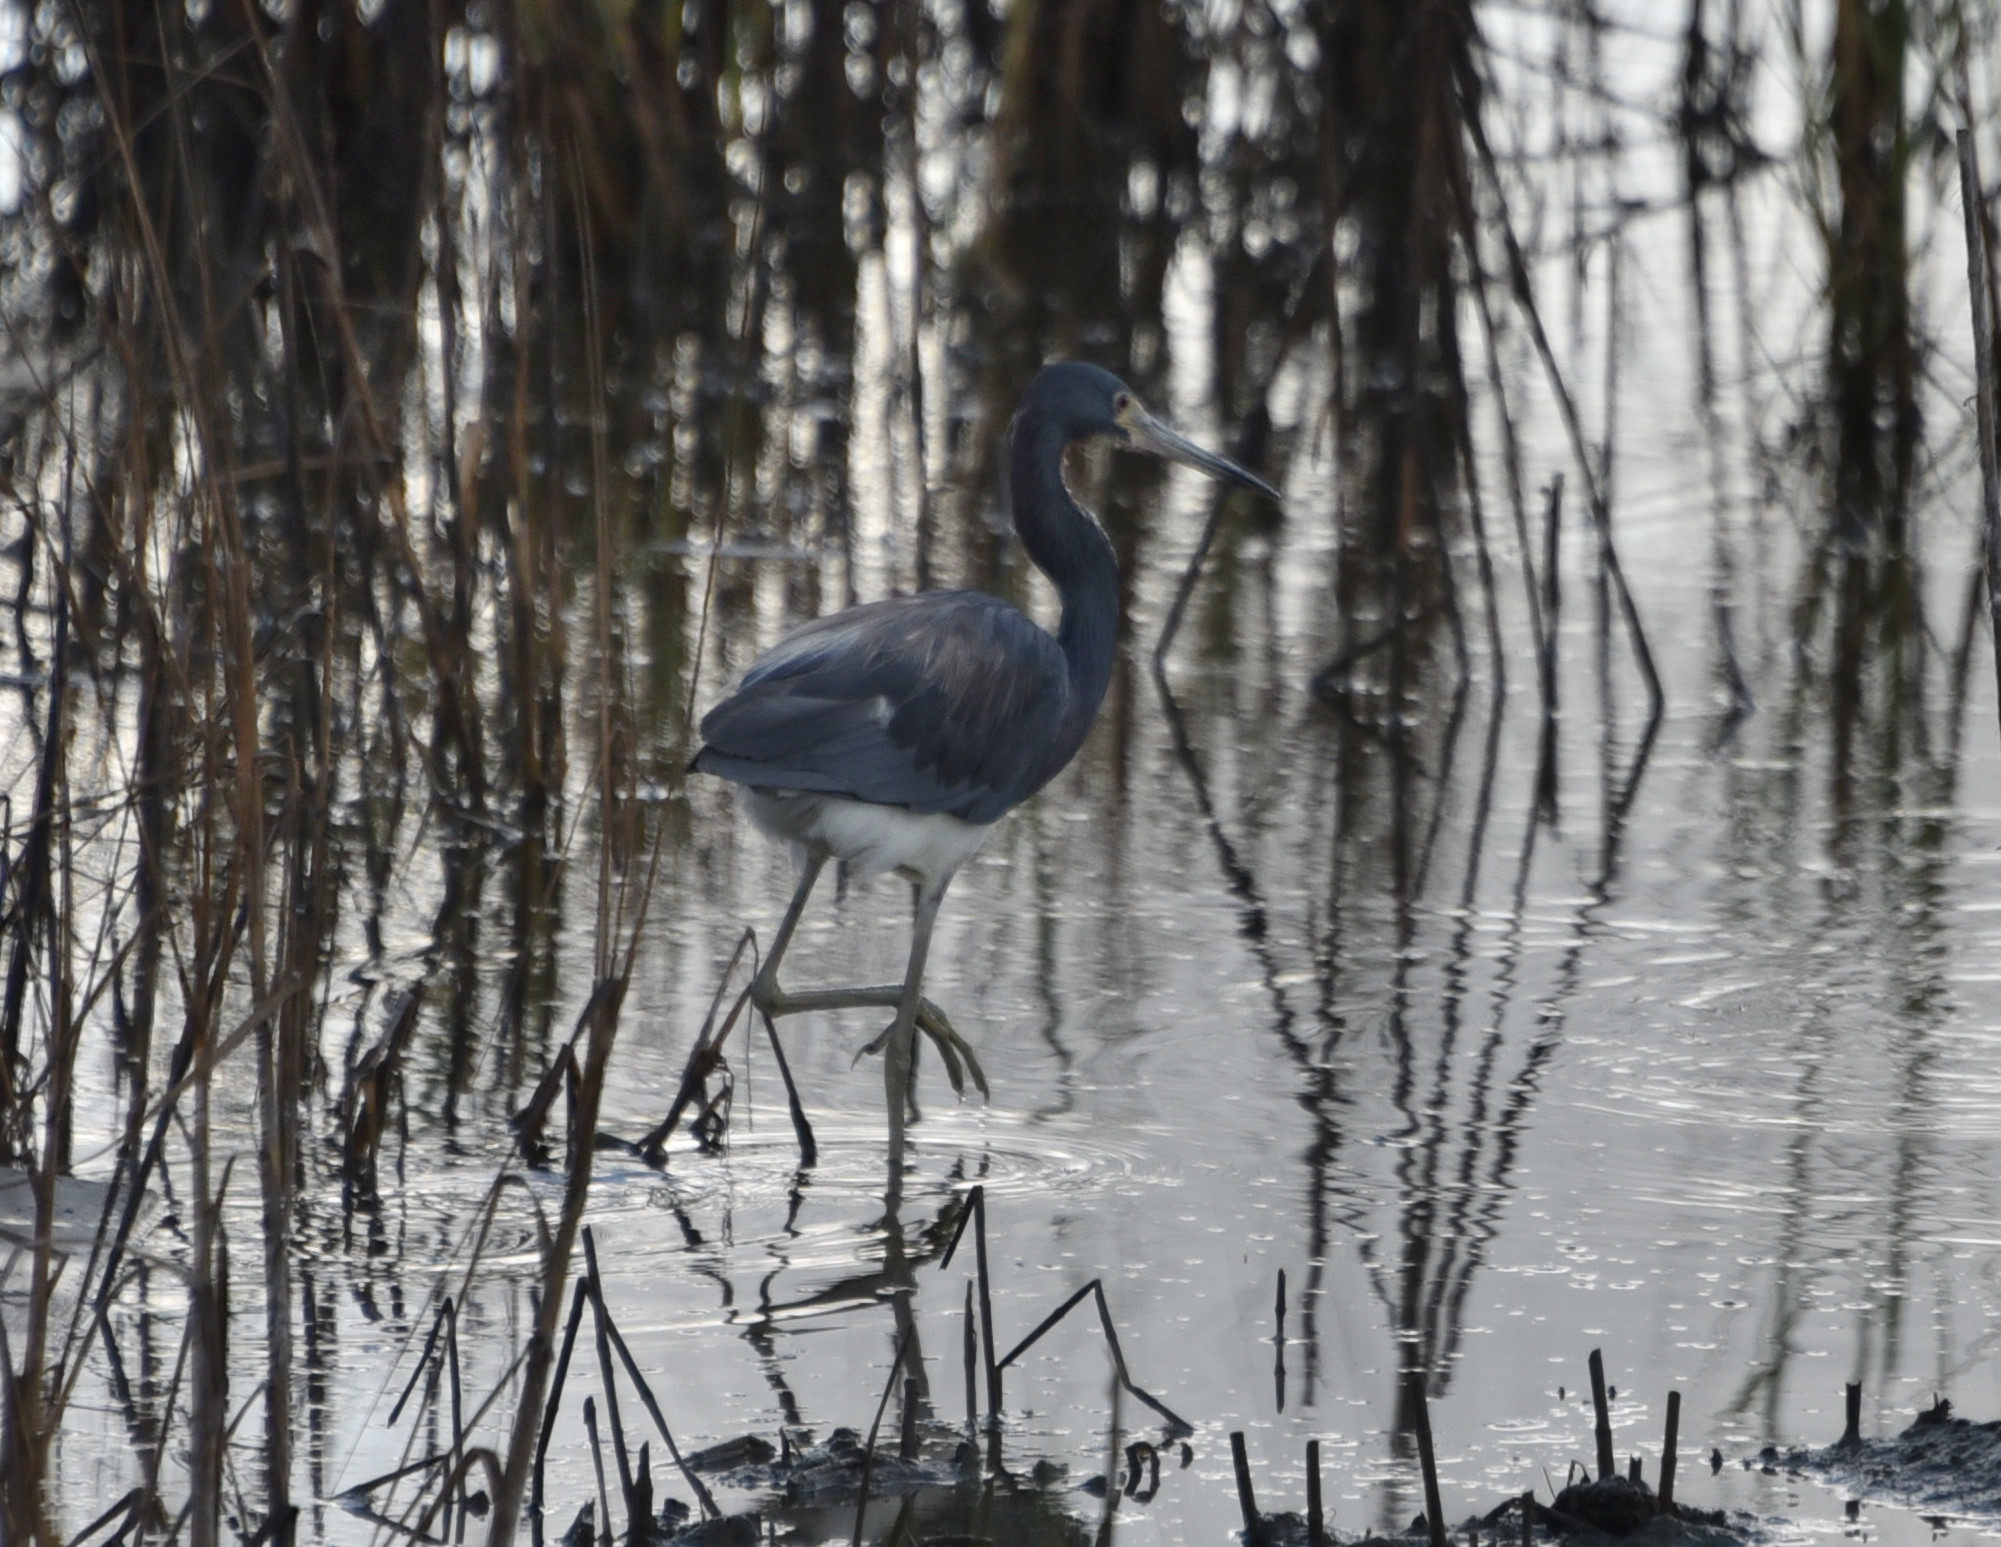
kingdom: Animalia
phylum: Chordata
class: Aves
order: Pelecaniformes
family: Ardeidae
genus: Egretta
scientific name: Egretta tricolor
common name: Tricolored heron
